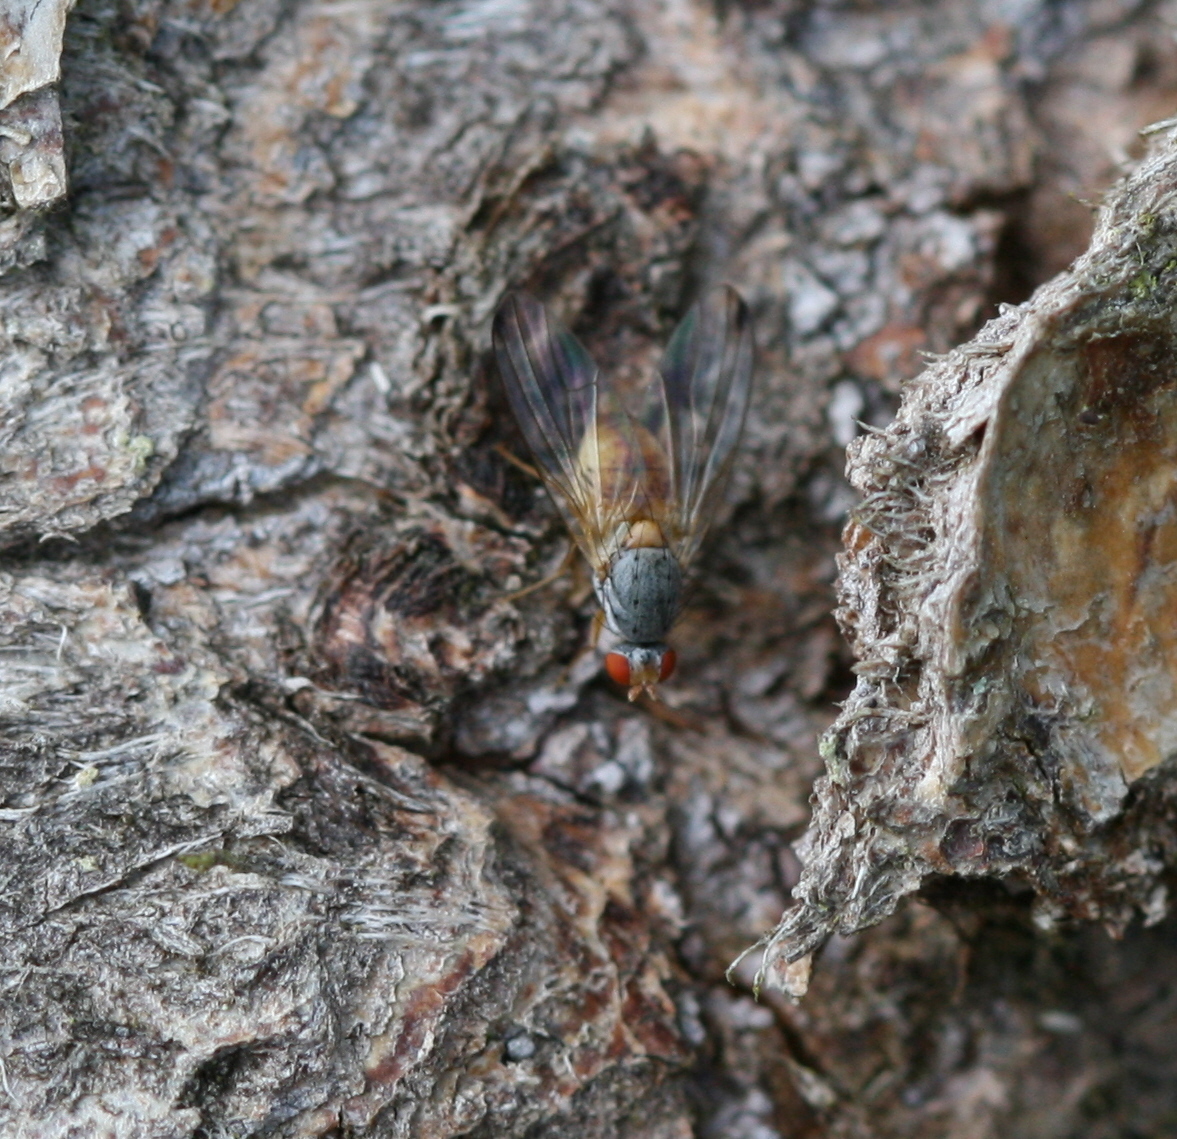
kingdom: Animalia
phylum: Arthropoda
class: Insecta
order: Diptera
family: Pallopteridae
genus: Palloptera
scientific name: Palloptera
